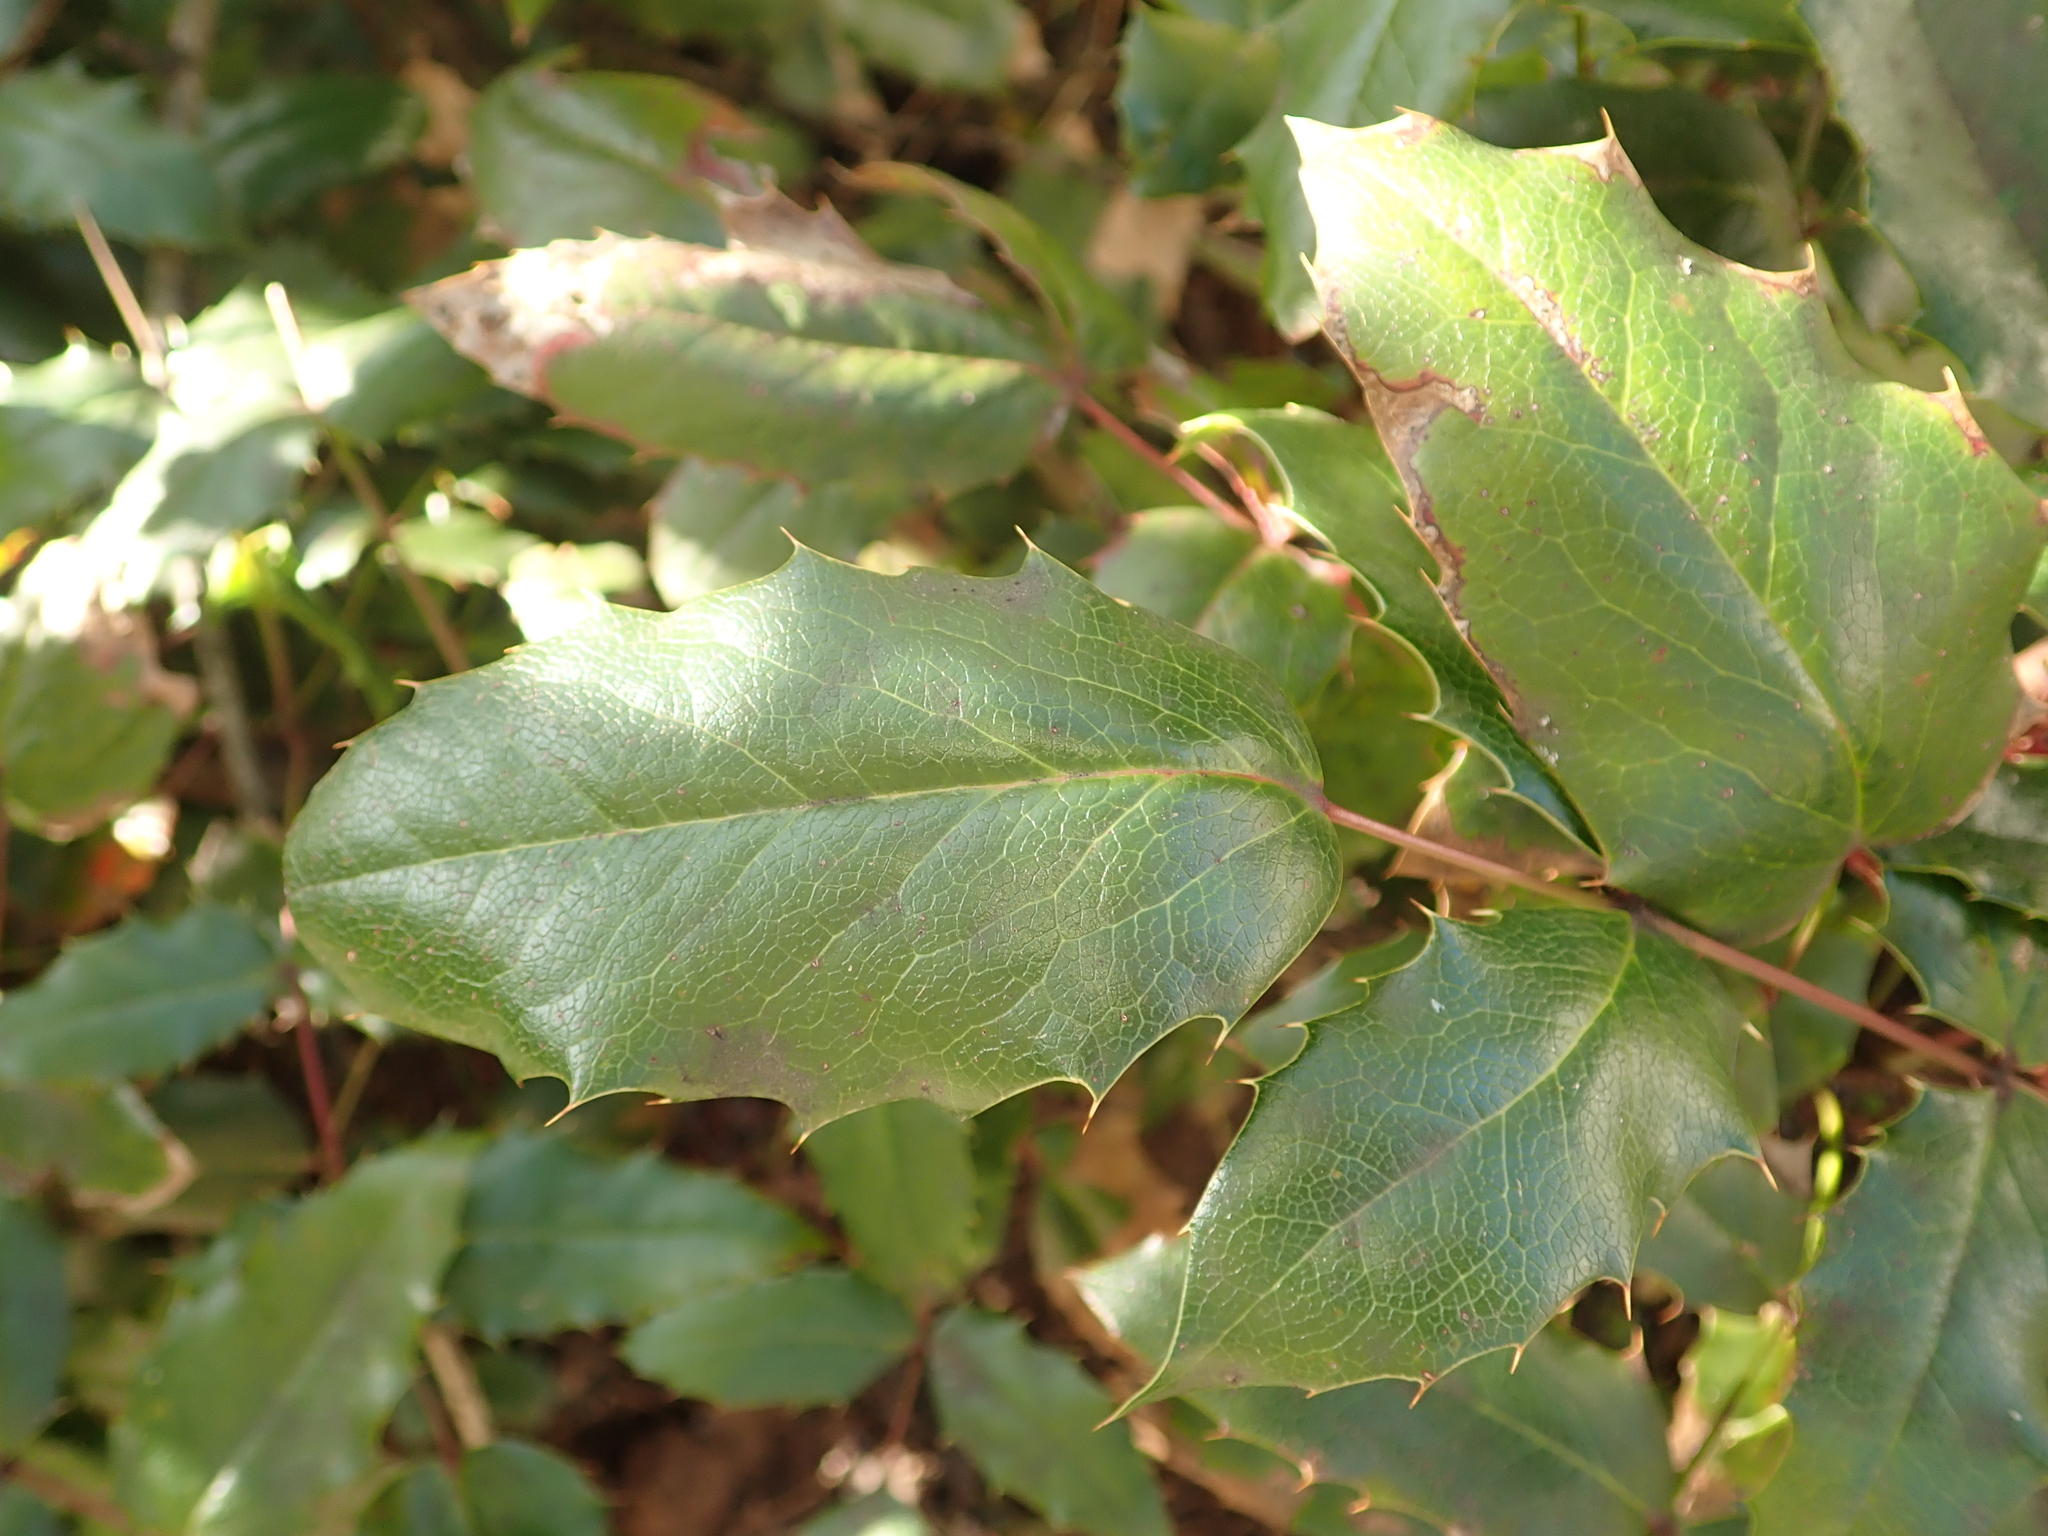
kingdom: Plantae
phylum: Tracheophyta
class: Magnoliopsida
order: Ranunculales
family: Berberidaceae
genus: Mahonia
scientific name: Mahonia aquifolium
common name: Oregon-grape
